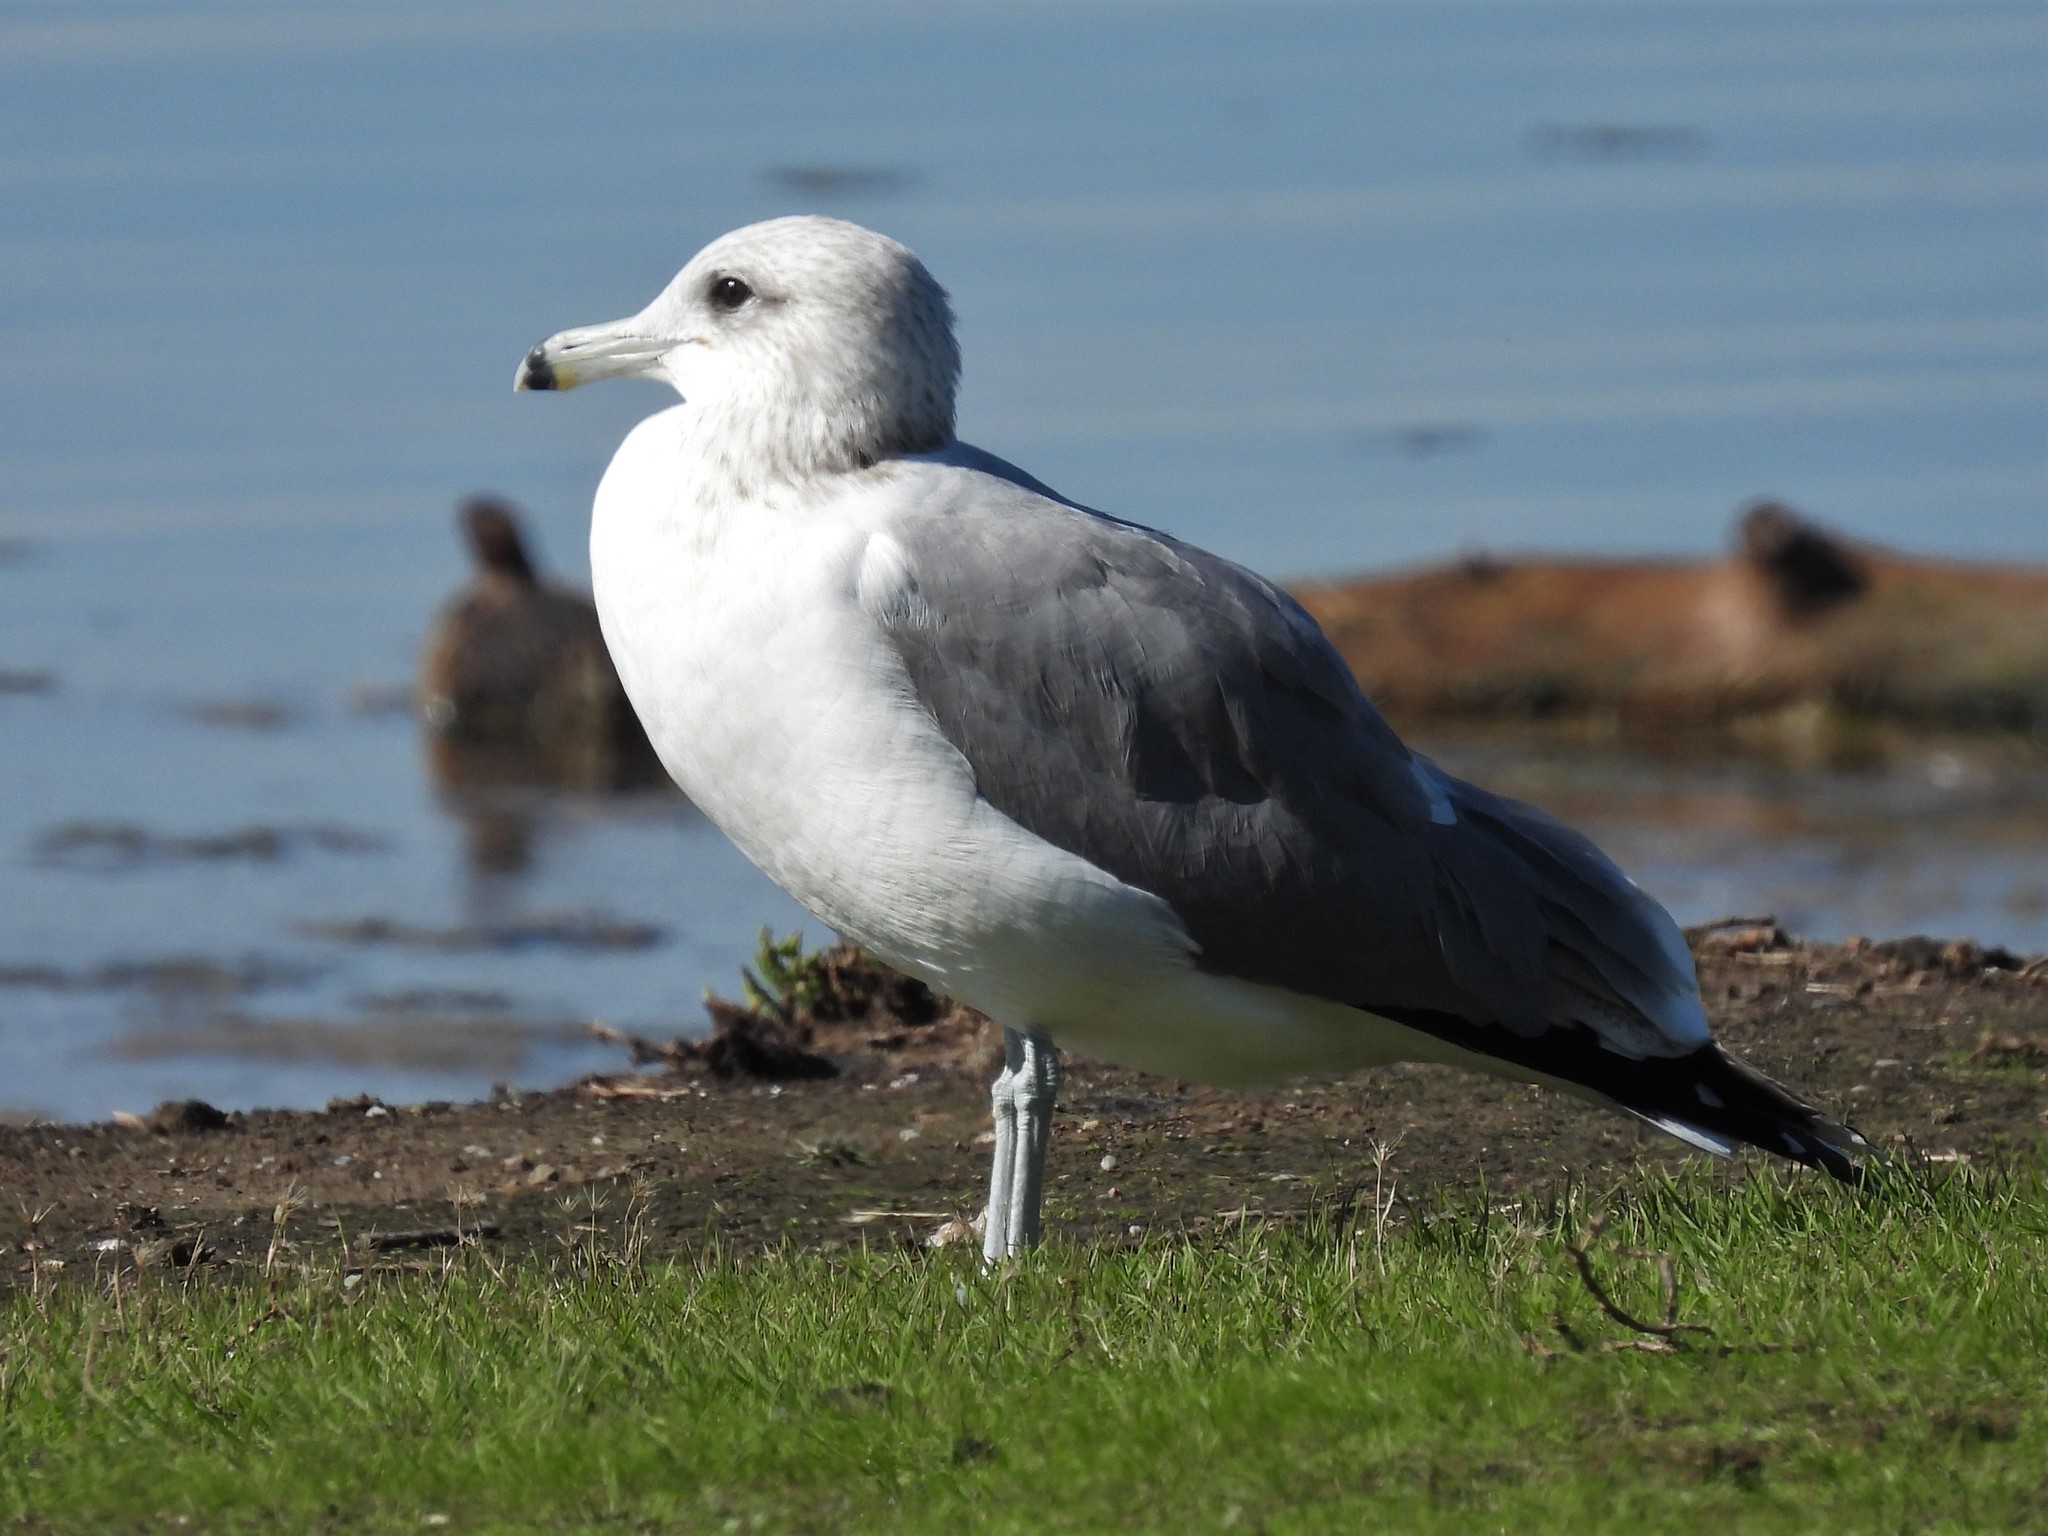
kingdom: Animalia
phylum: Chordata
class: Aves
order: Charadriiformes
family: Laridae
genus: Larus
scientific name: Larus californicus
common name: California gull
